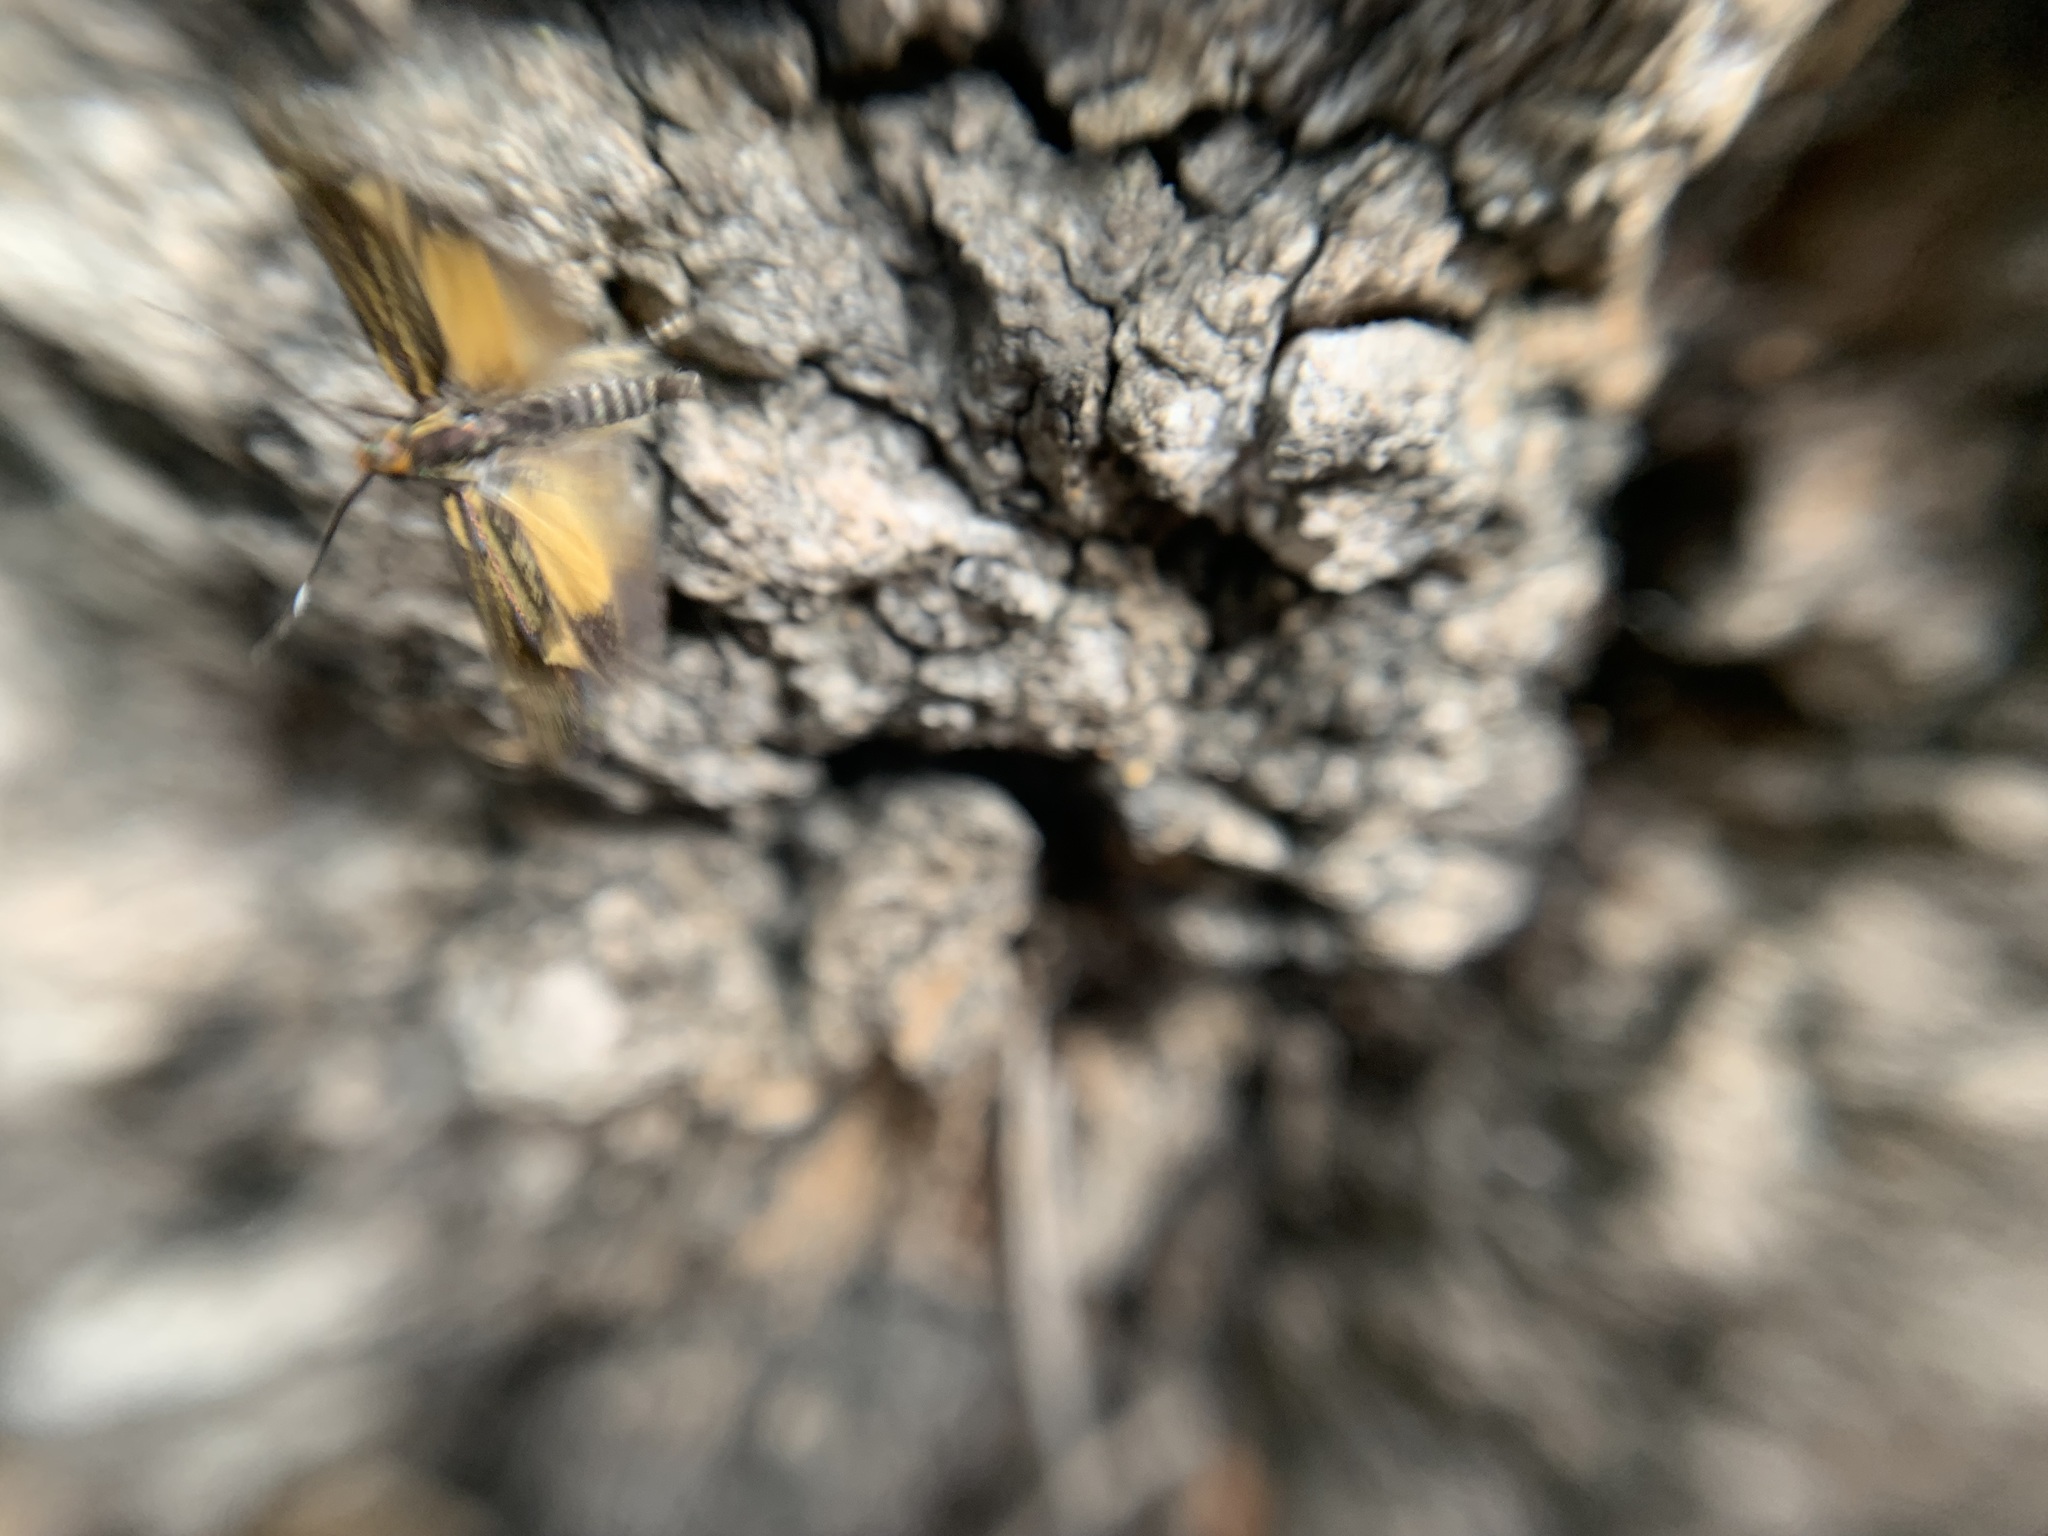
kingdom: Animalia
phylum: Arthropoda
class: Insecta
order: Lepidoptera
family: Oecophoridae
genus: Dafa
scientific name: Dafa Esperia sulphurella
